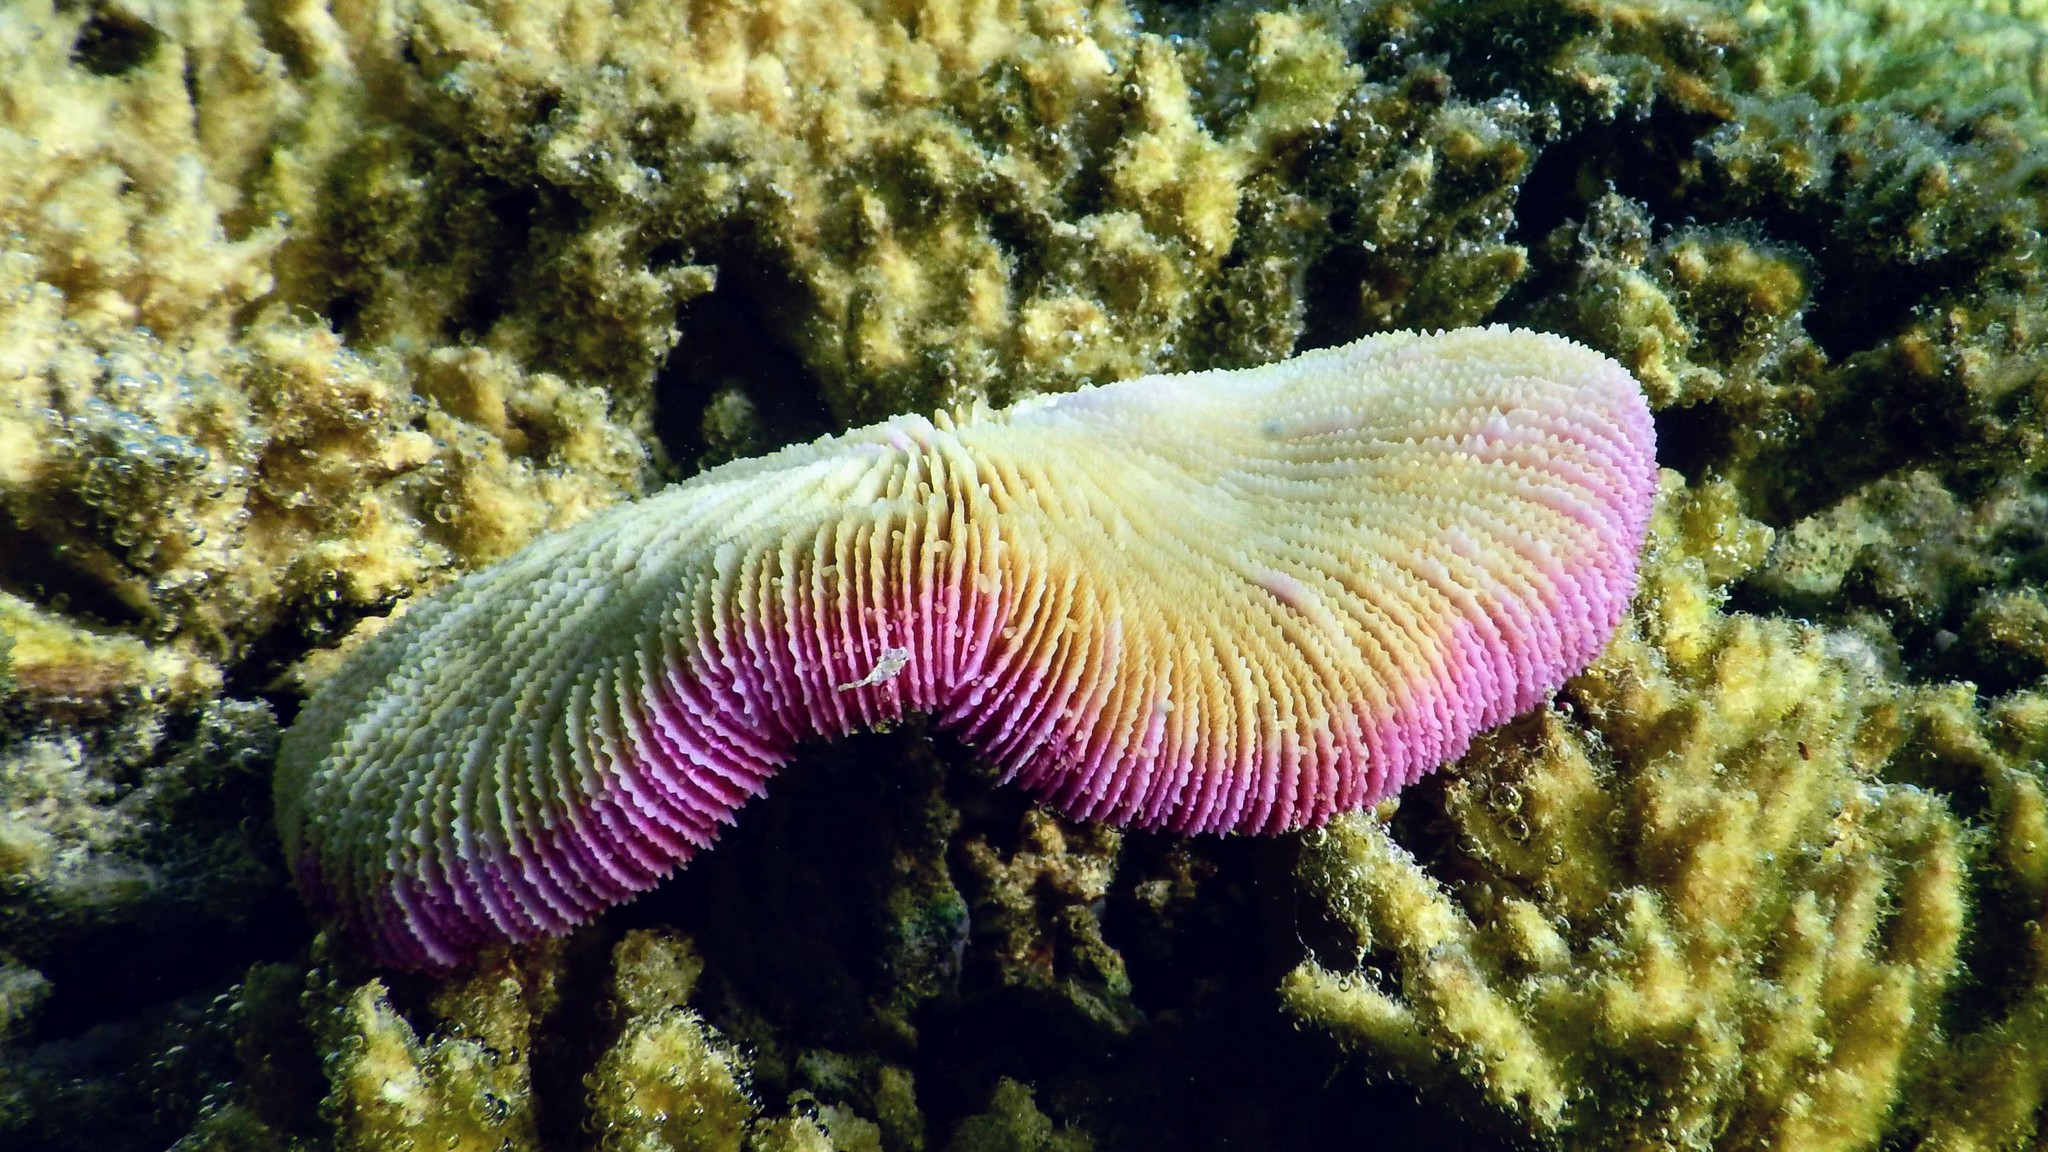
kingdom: Animalia
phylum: Cnidaria
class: Anthozoa
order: Scleractinia
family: Fungiidae
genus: Fungia
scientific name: Fungia fungites
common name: Mushroom coral
